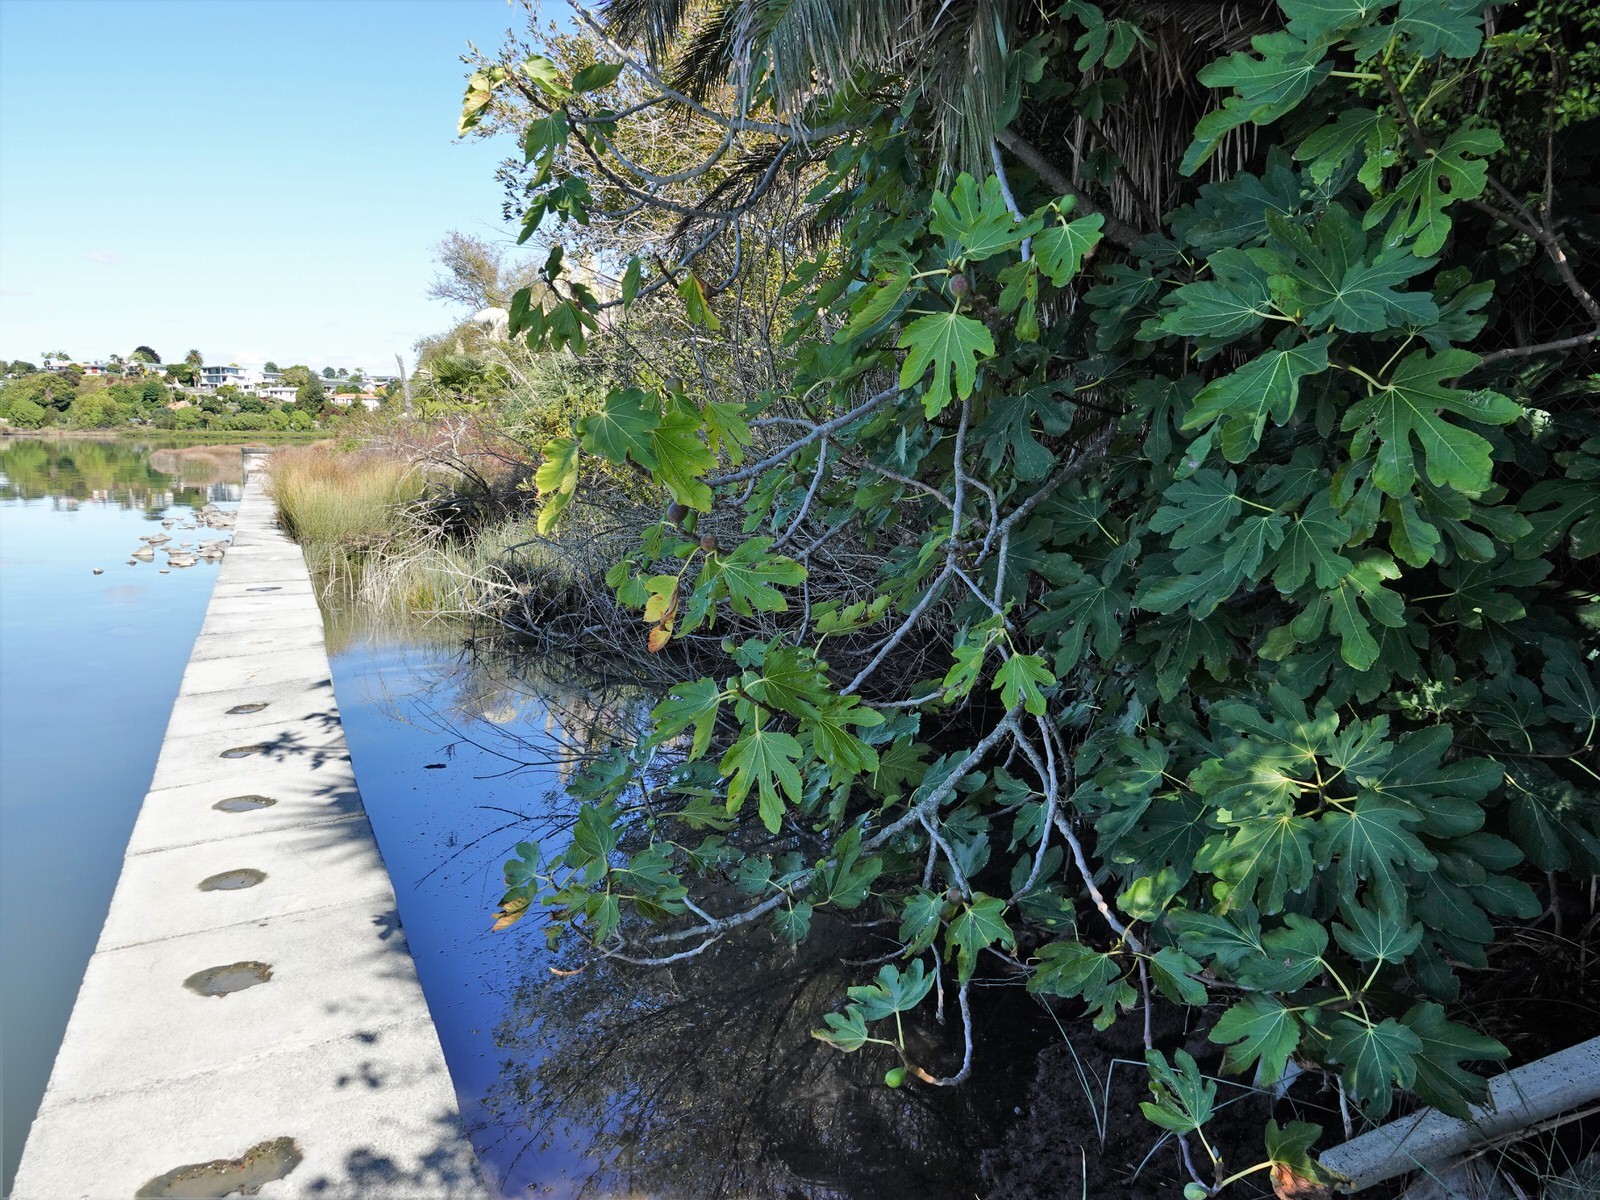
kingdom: Plantae
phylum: Tracheophyta
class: Magnoliopsida
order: Rosales
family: Moraceae
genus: Ficus
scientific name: Ficus carica
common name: Fig
